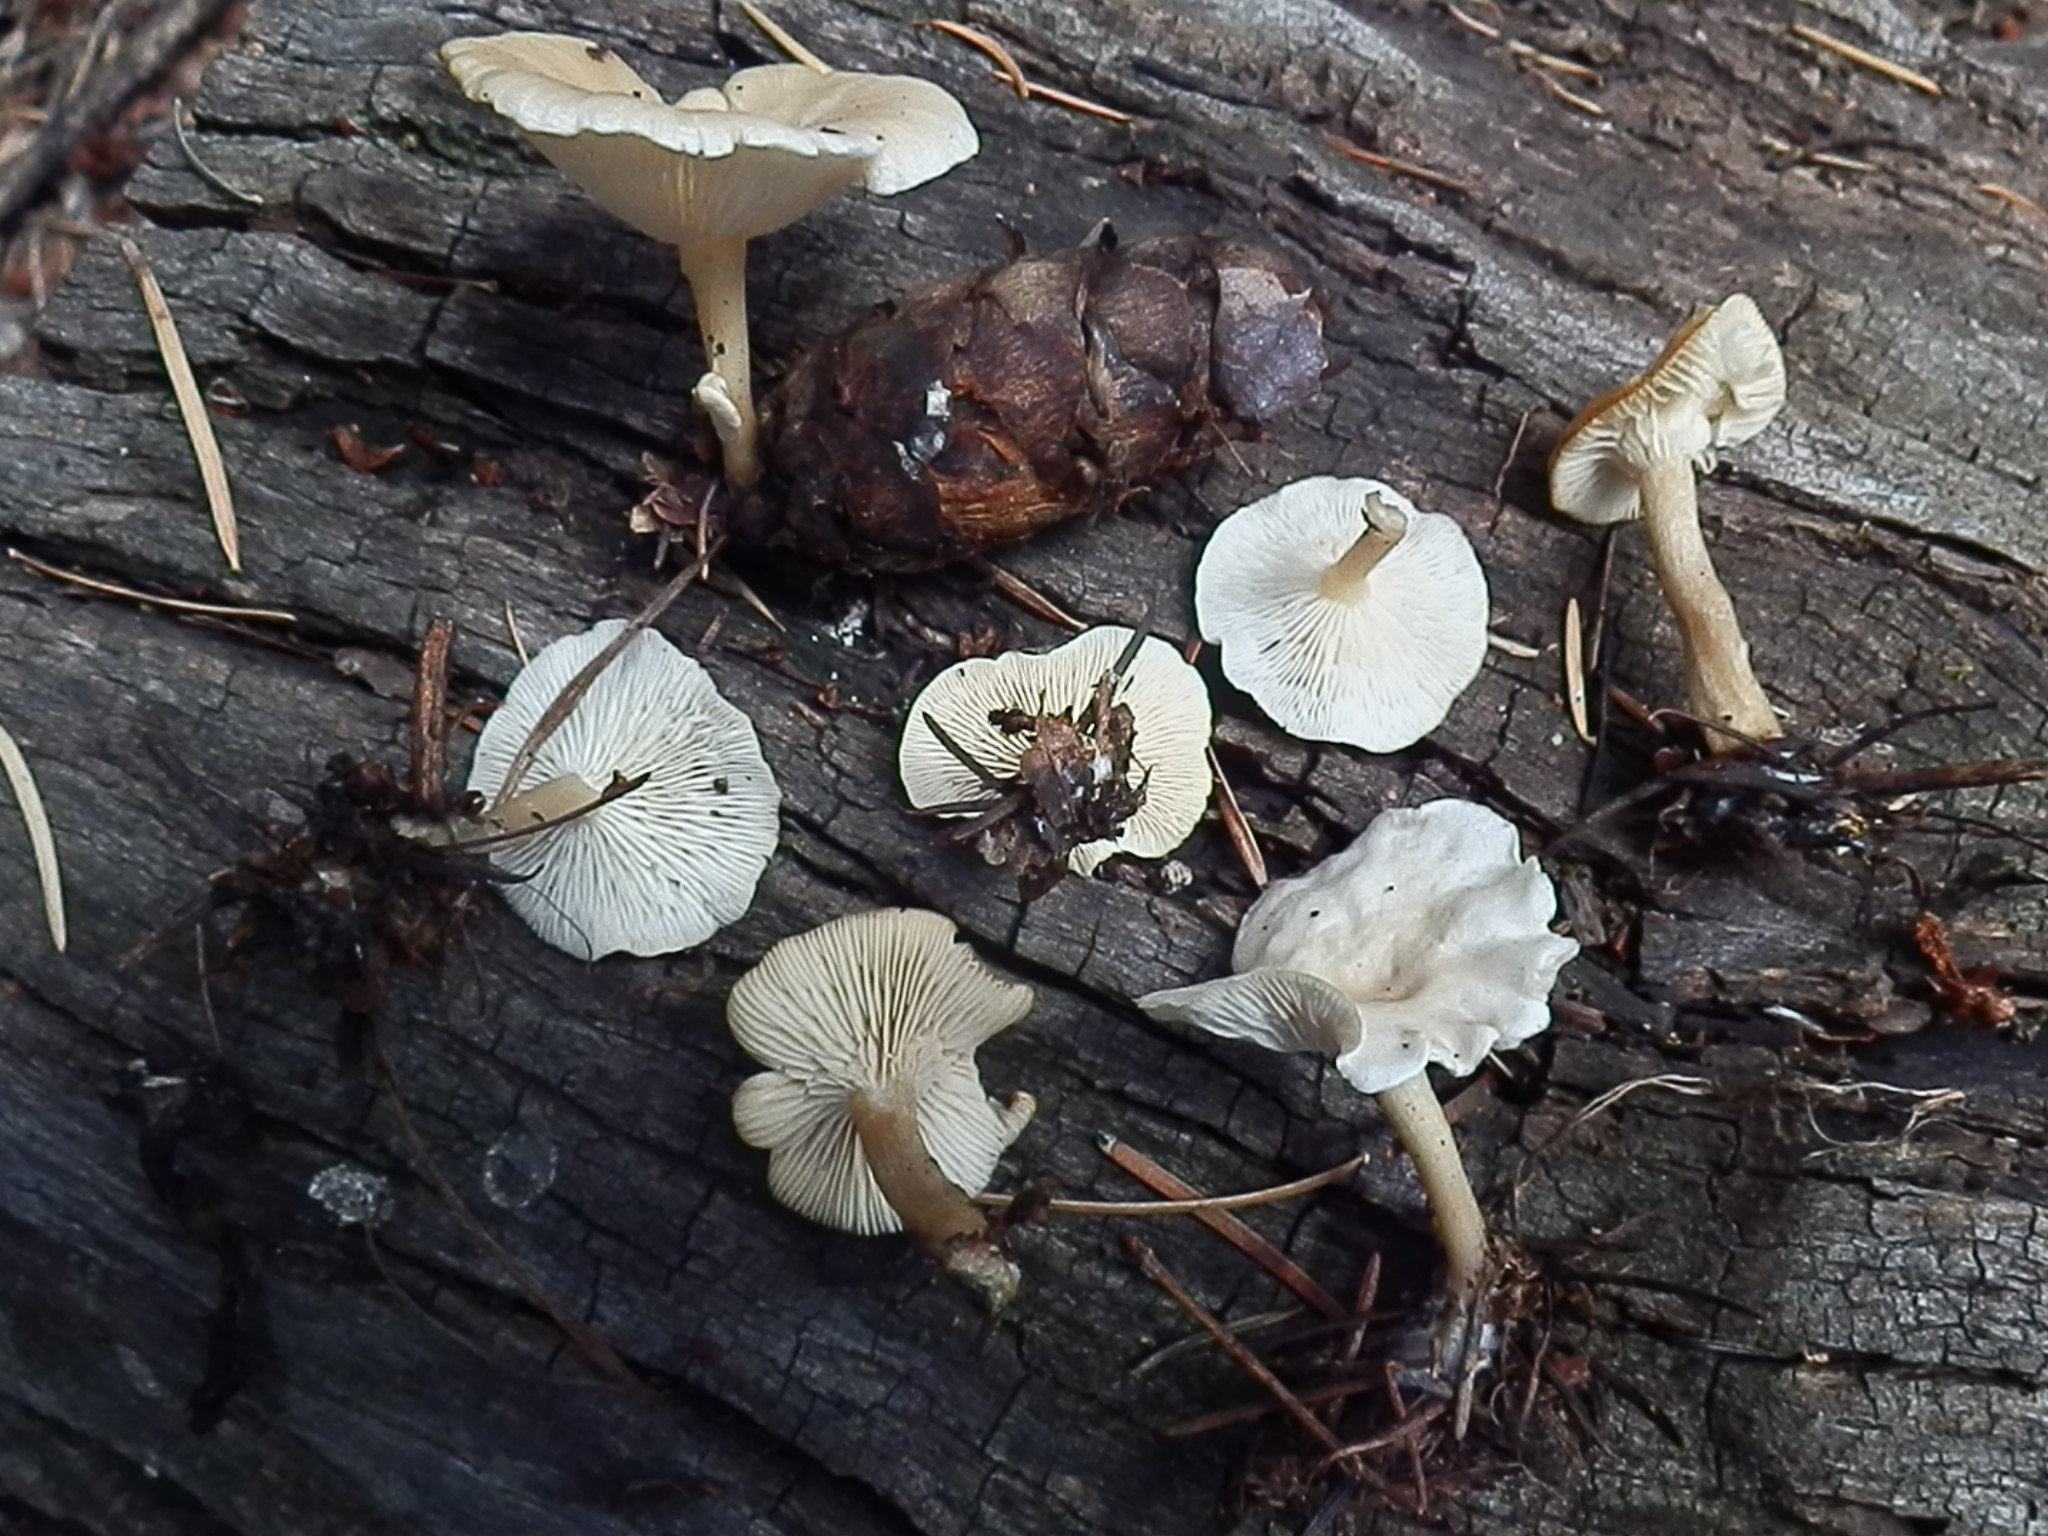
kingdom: Fungi
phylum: Basidiomycota
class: Agaricomycetes
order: Agaricales
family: Tricholomataceae
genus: Collybia
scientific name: Collybia phylladophila
